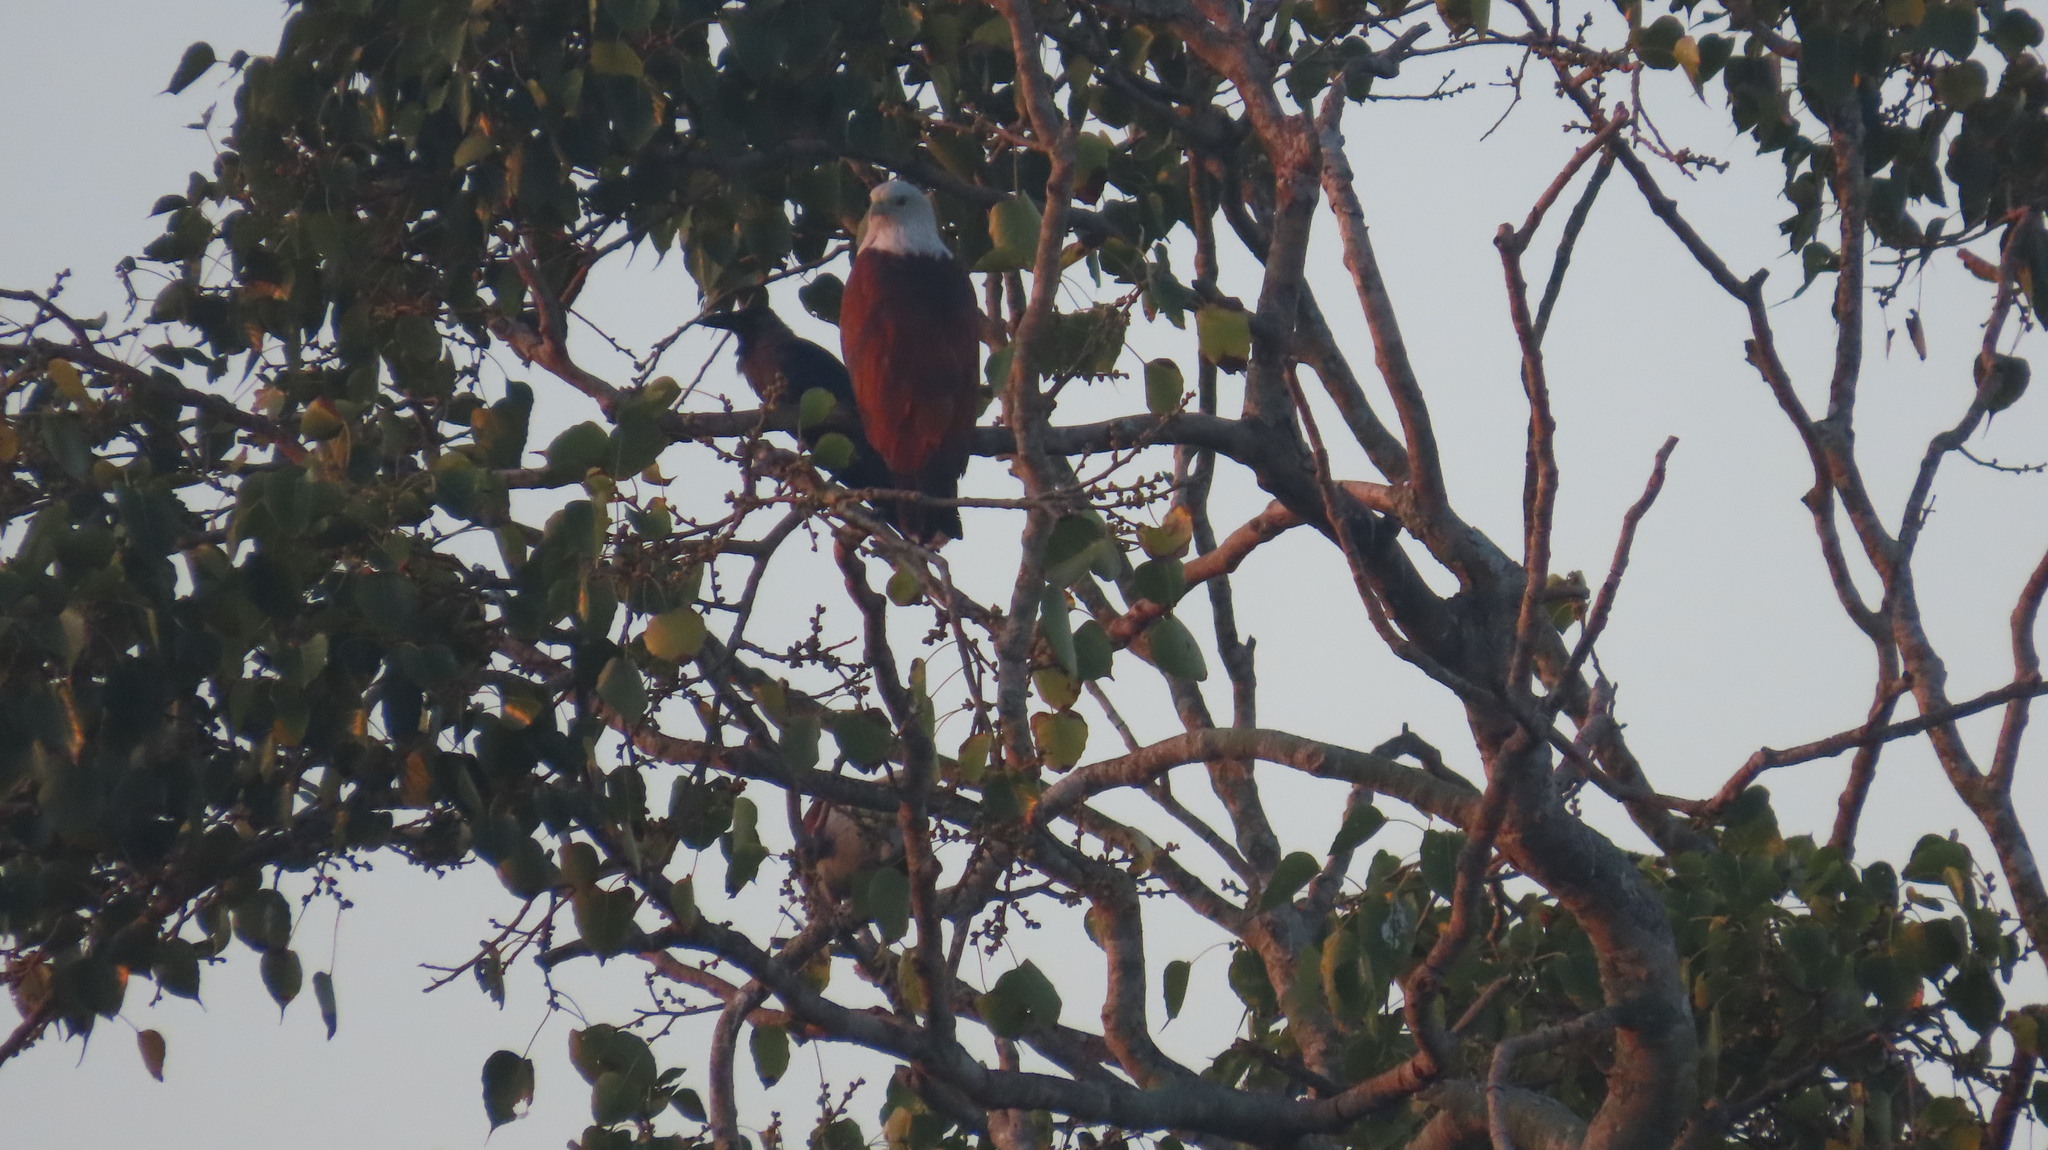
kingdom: Animalia
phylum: Chordata
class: Aves
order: Accipitriformes
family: Accipitridae
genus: Haliastur
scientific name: Haliastur indus
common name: Brahminy kite
